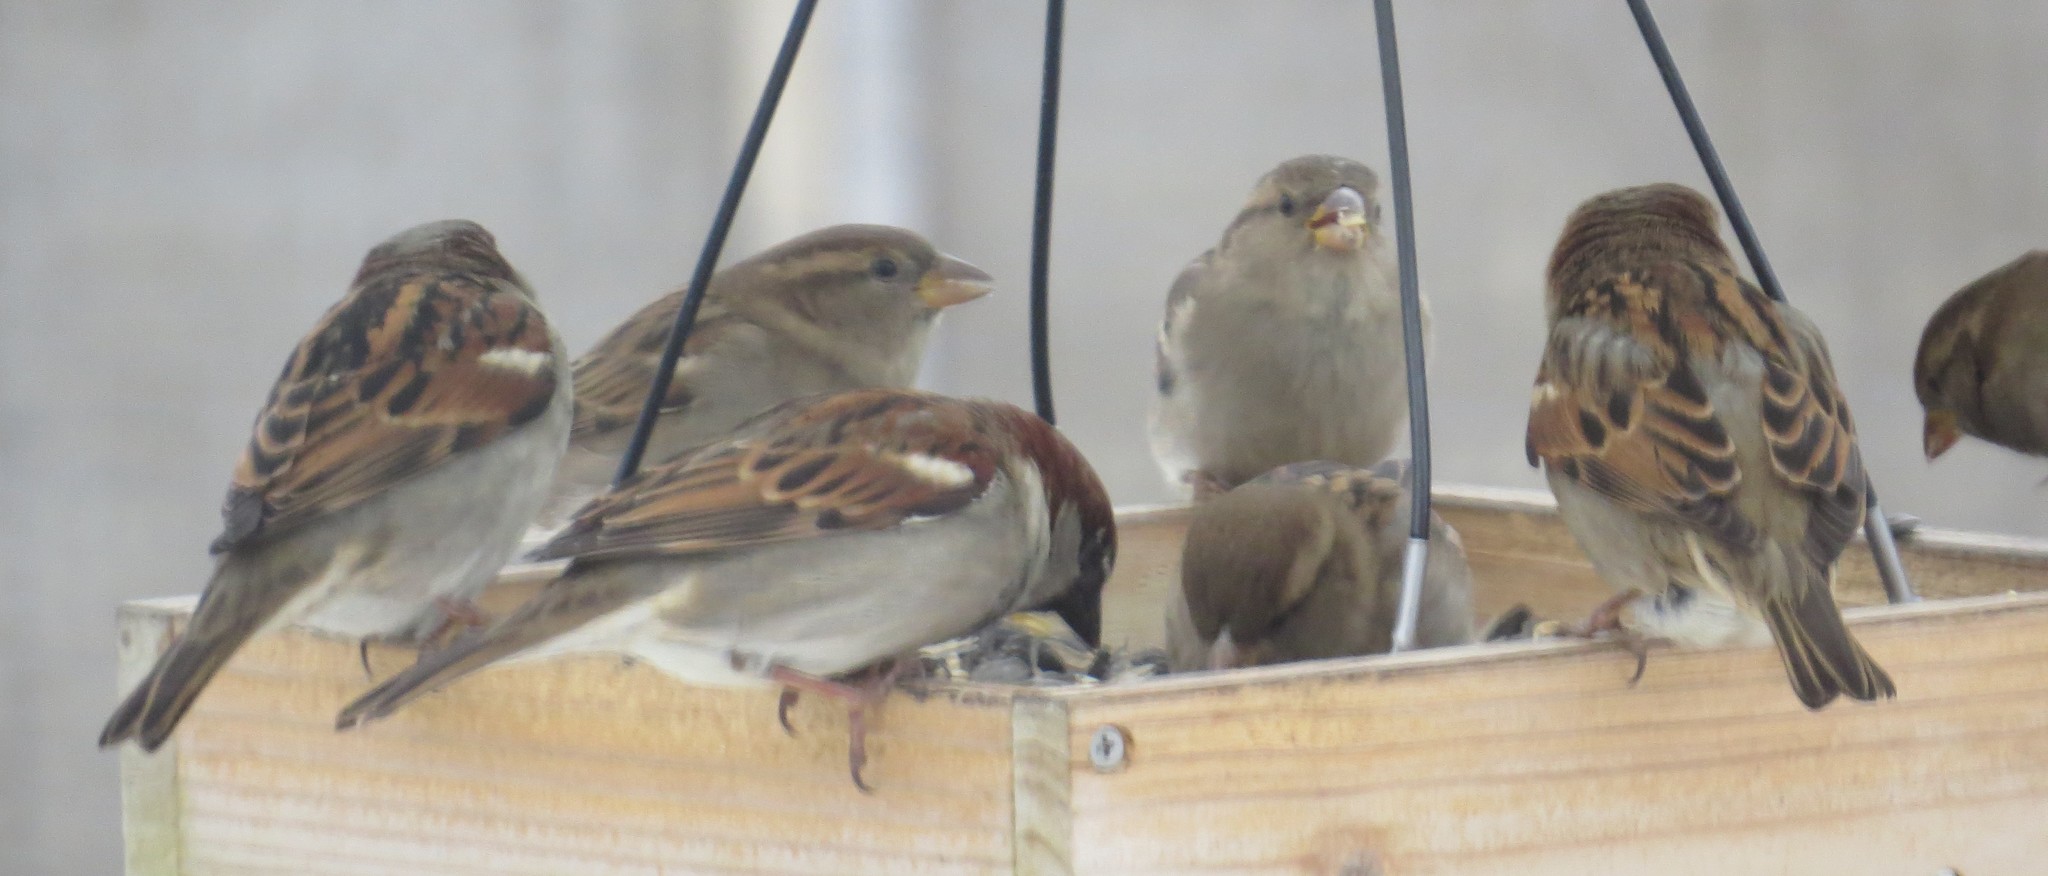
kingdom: Animalia
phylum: Chordata
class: Aves
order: Passeriformes
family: Passeridae
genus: Passer
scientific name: Passer domesticus
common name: House sparrow
